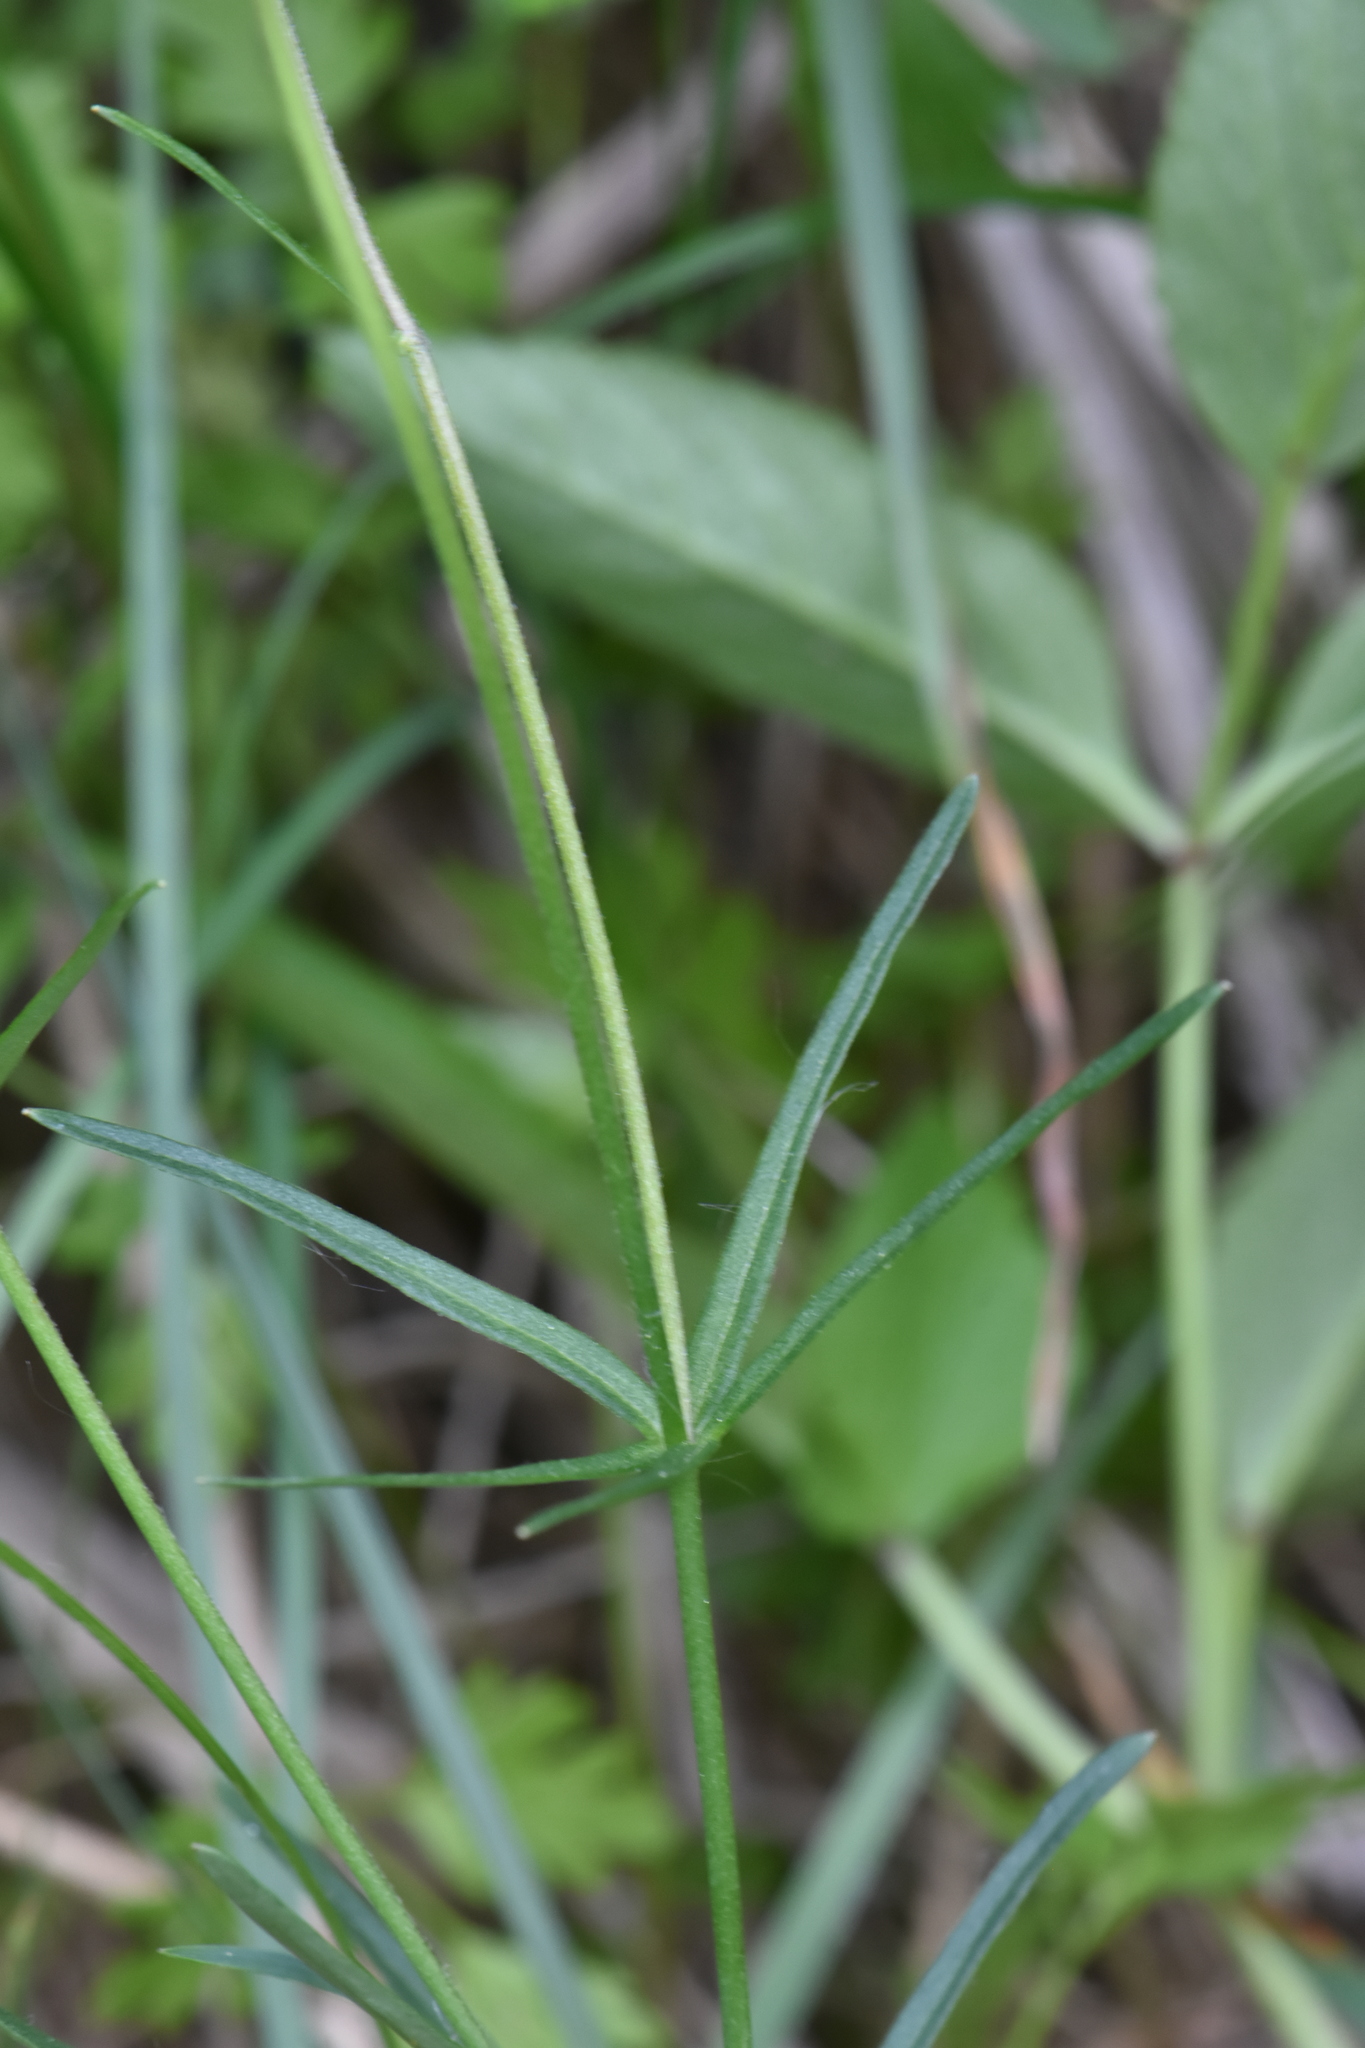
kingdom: Plantae
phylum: Tracheophyta
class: Magnoliopsida
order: Ranunculales
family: Ranunculaceae
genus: Ranunculus
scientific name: Ranunculus auricomus
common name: Goldilocks buttercup
